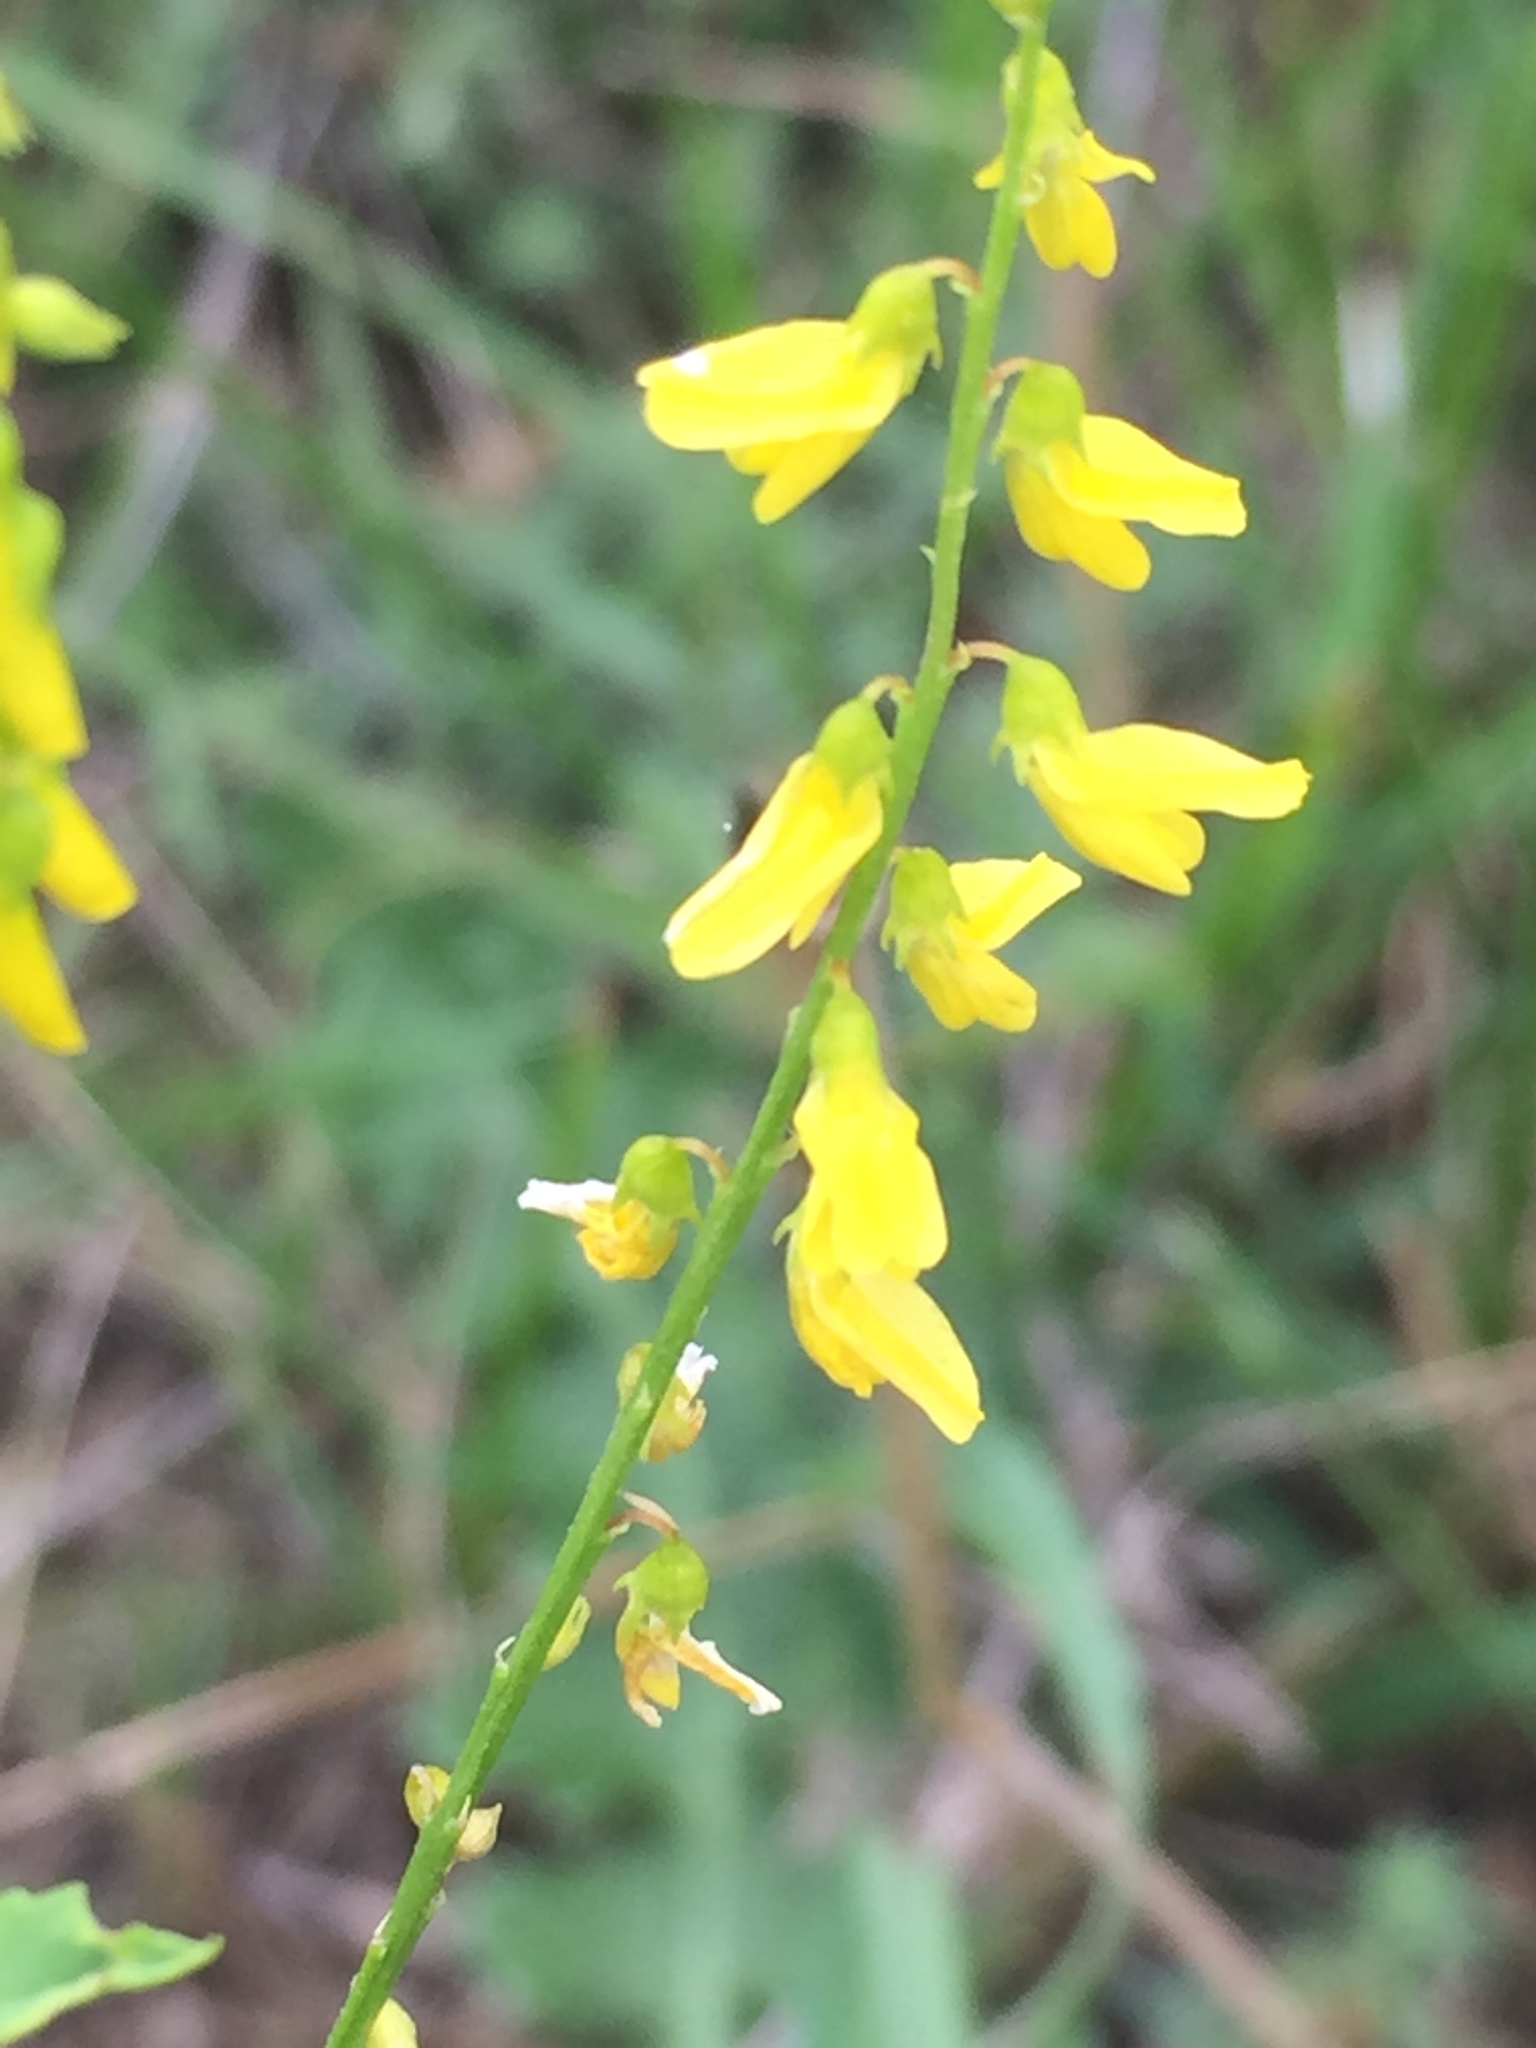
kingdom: Plantae
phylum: Tracheophyta
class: Magnoliopsida
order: Fabales
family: Fabaceae
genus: Melilotus
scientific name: Melilotus officinalis
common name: Sweetclover
